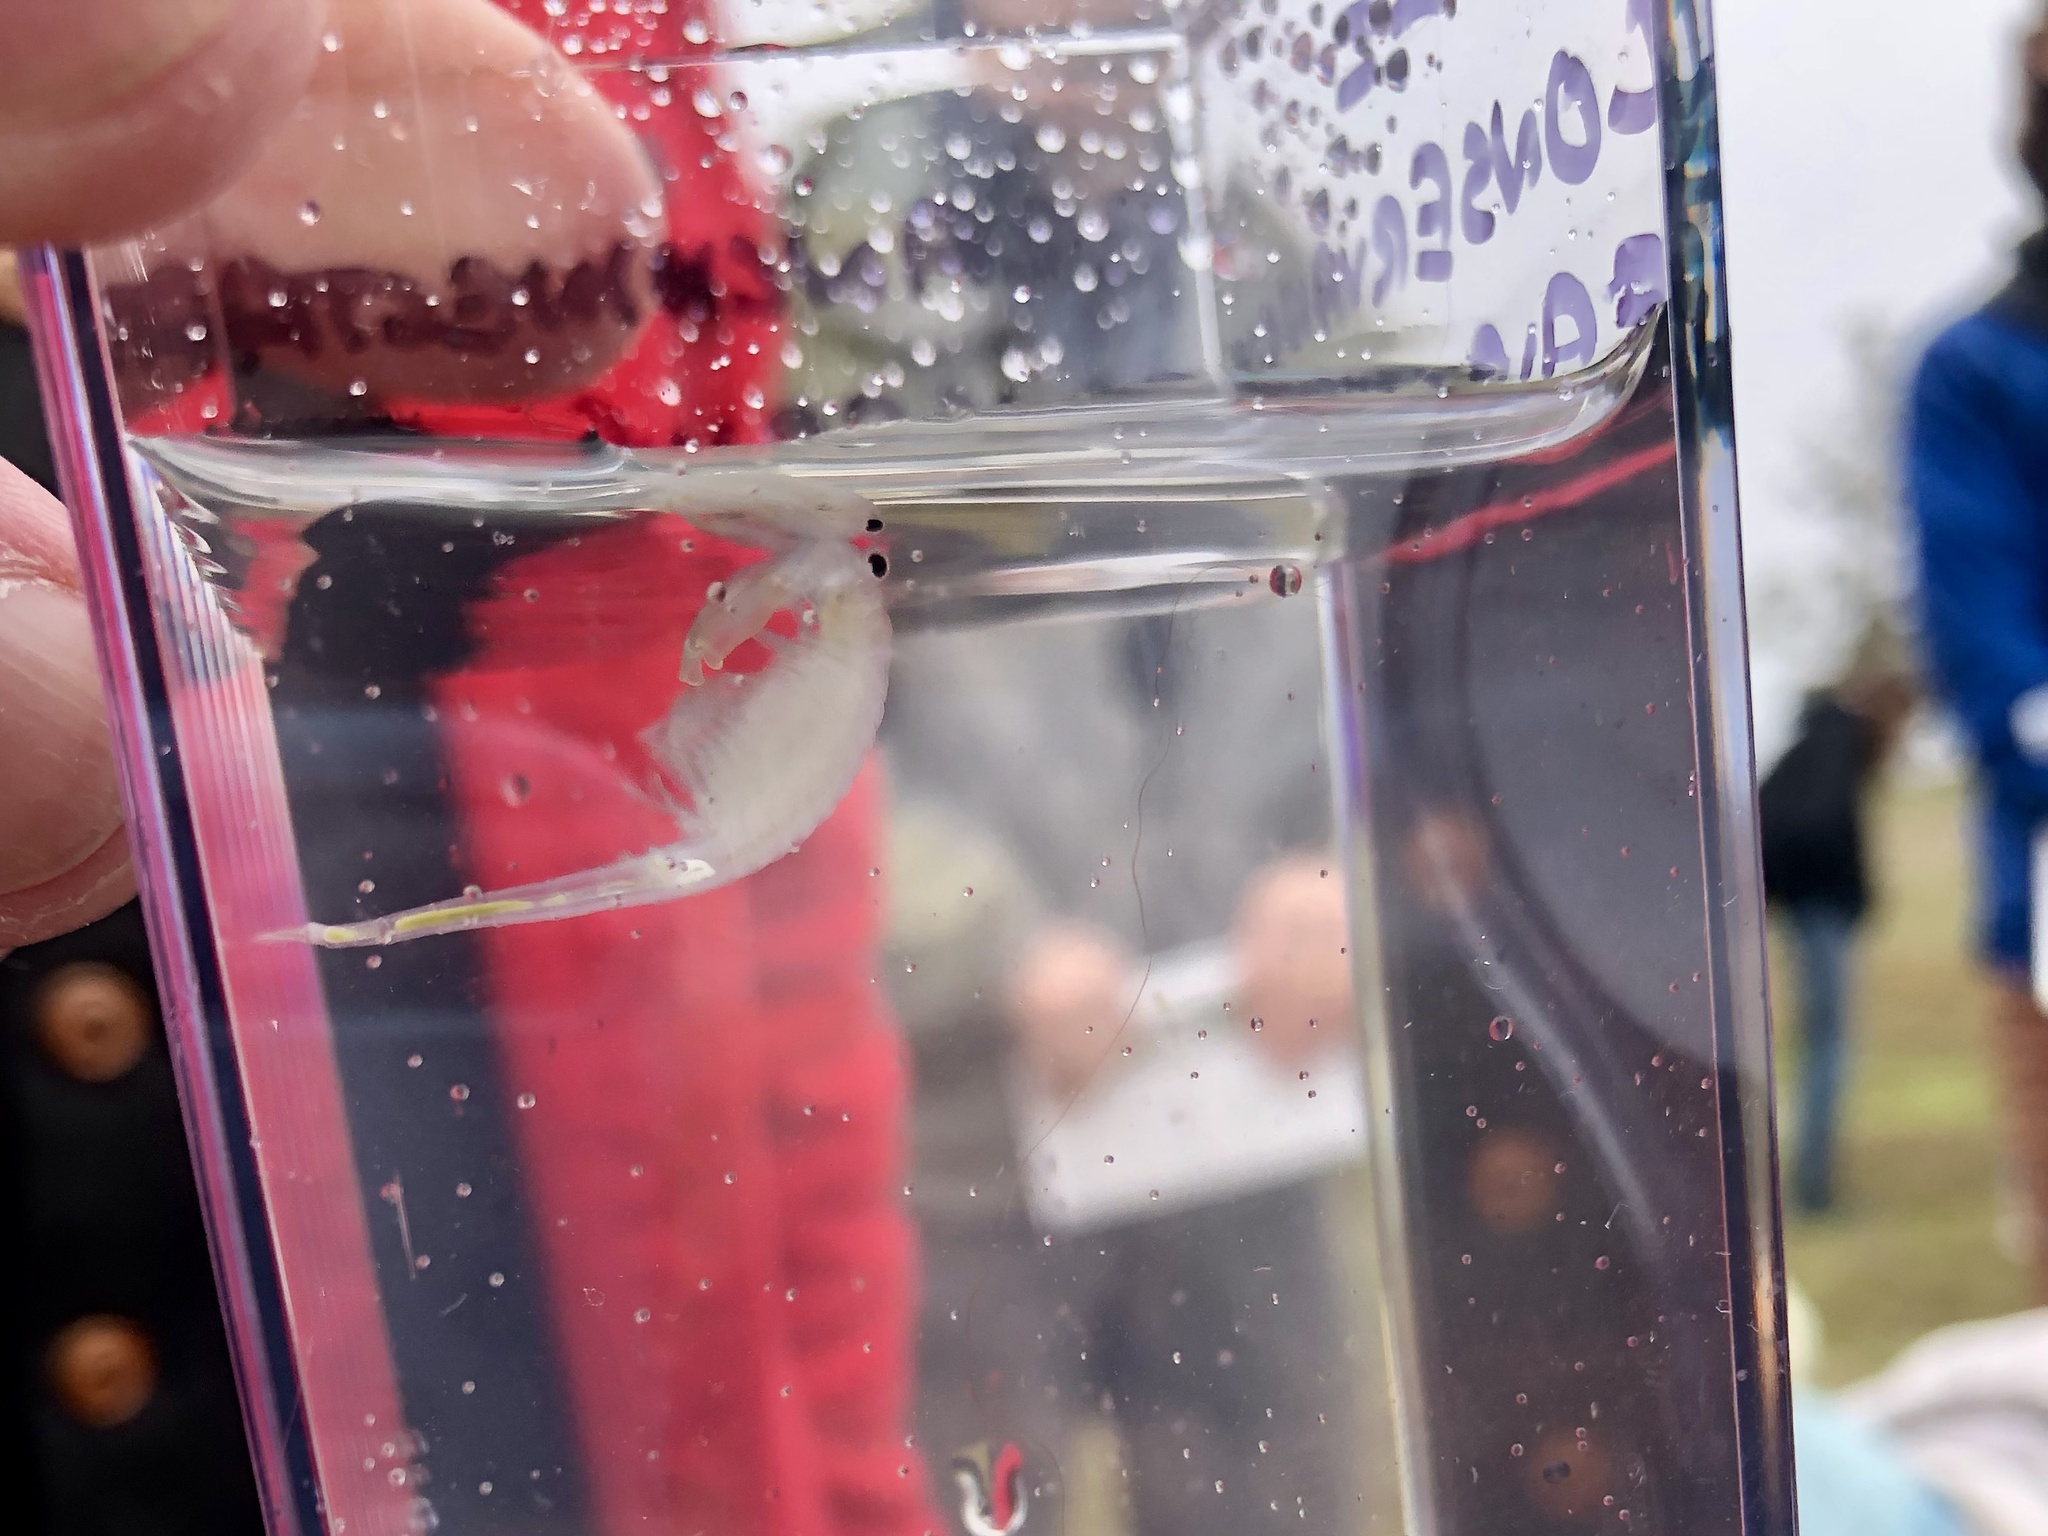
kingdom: Animalia
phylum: Arthropoda
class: Branchiopoda
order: Anostraca
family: Branchinectidae
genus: Branchinecta
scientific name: Branchinecta conservatio
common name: Conservancy fairy shrimp
